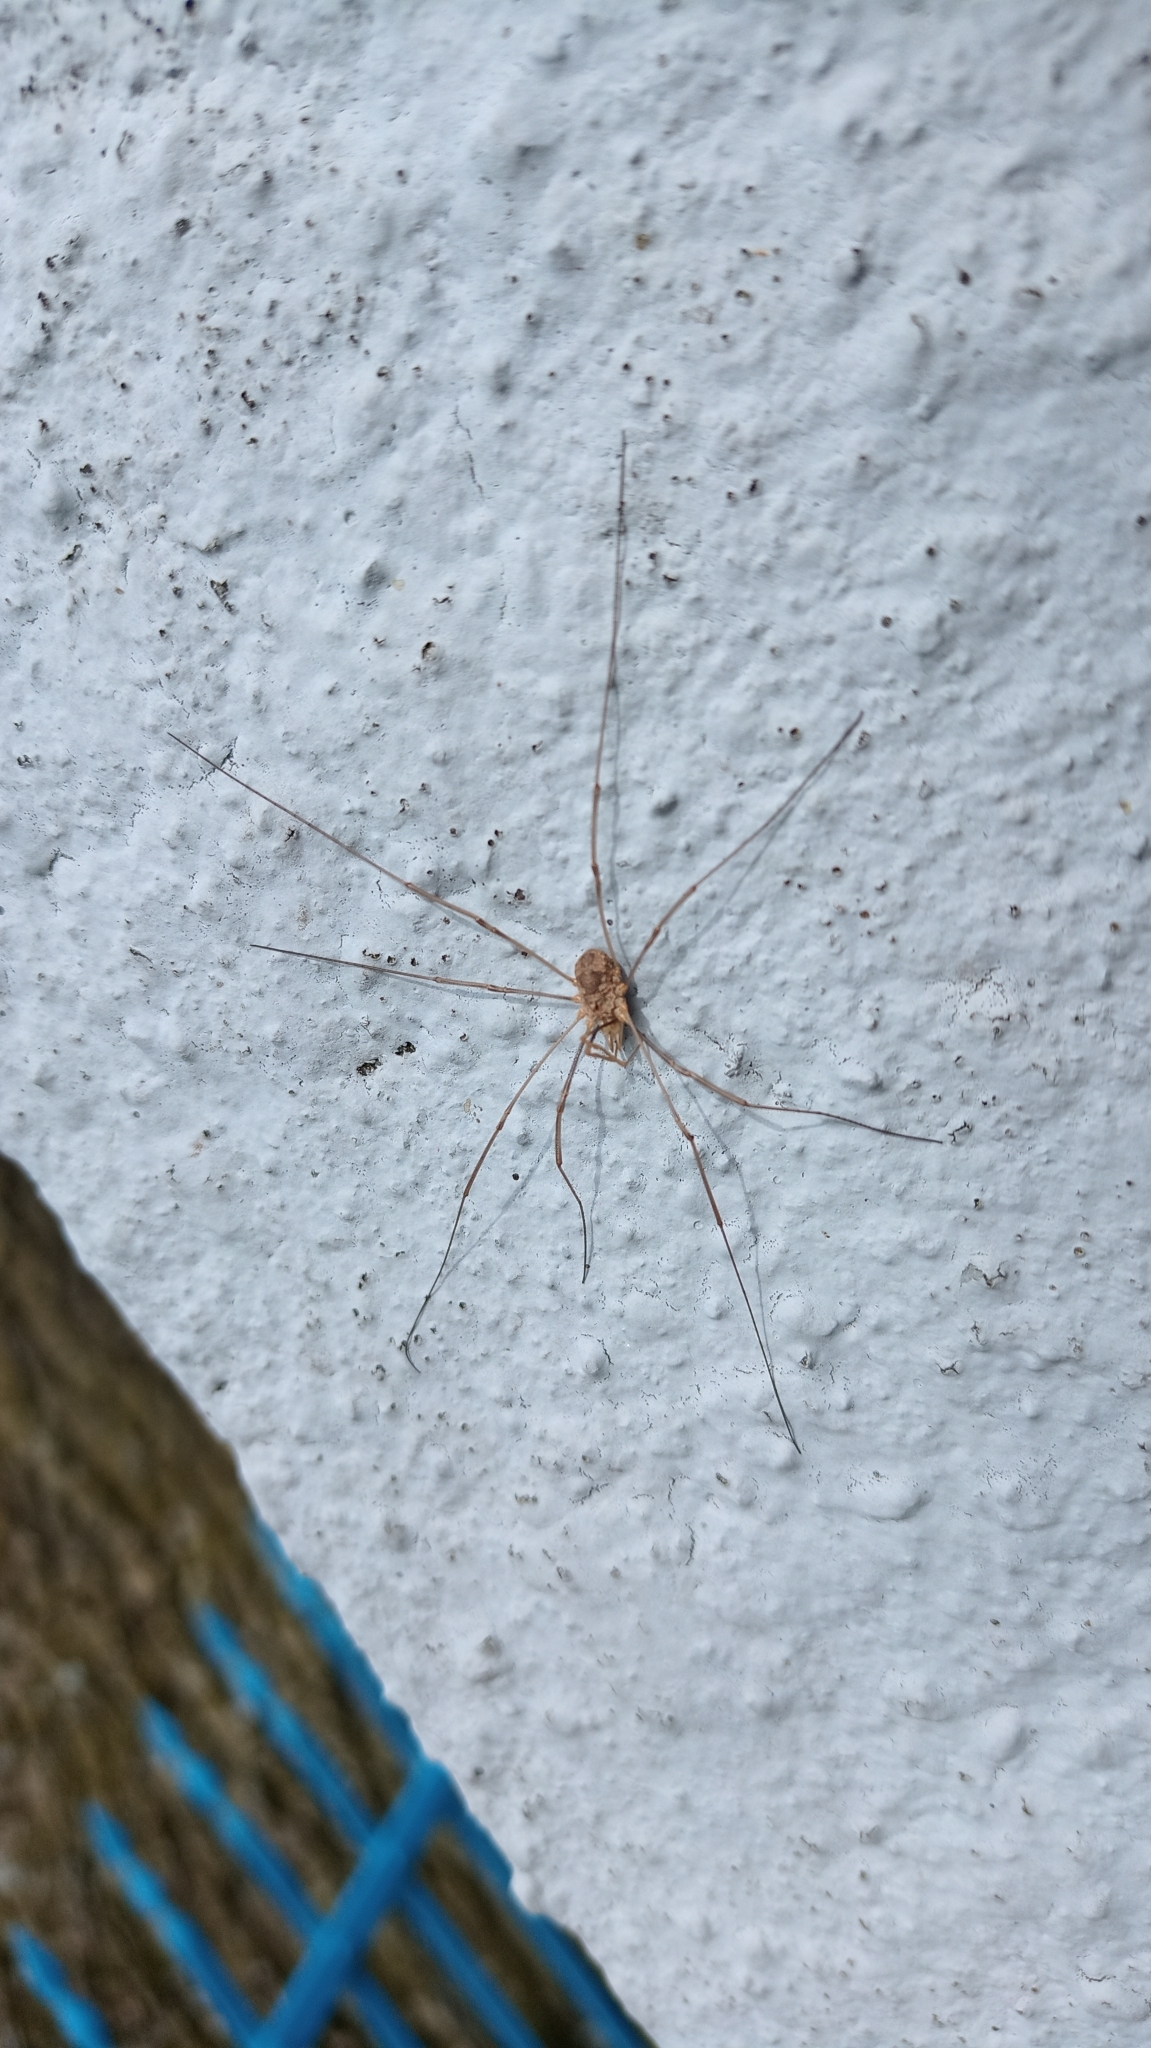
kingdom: Animalia
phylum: Arthropoda
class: Arachnida
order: Opiliones
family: Phalangiidae
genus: Phalangium
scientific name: Phalangium opilio
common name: Daddy longleg
